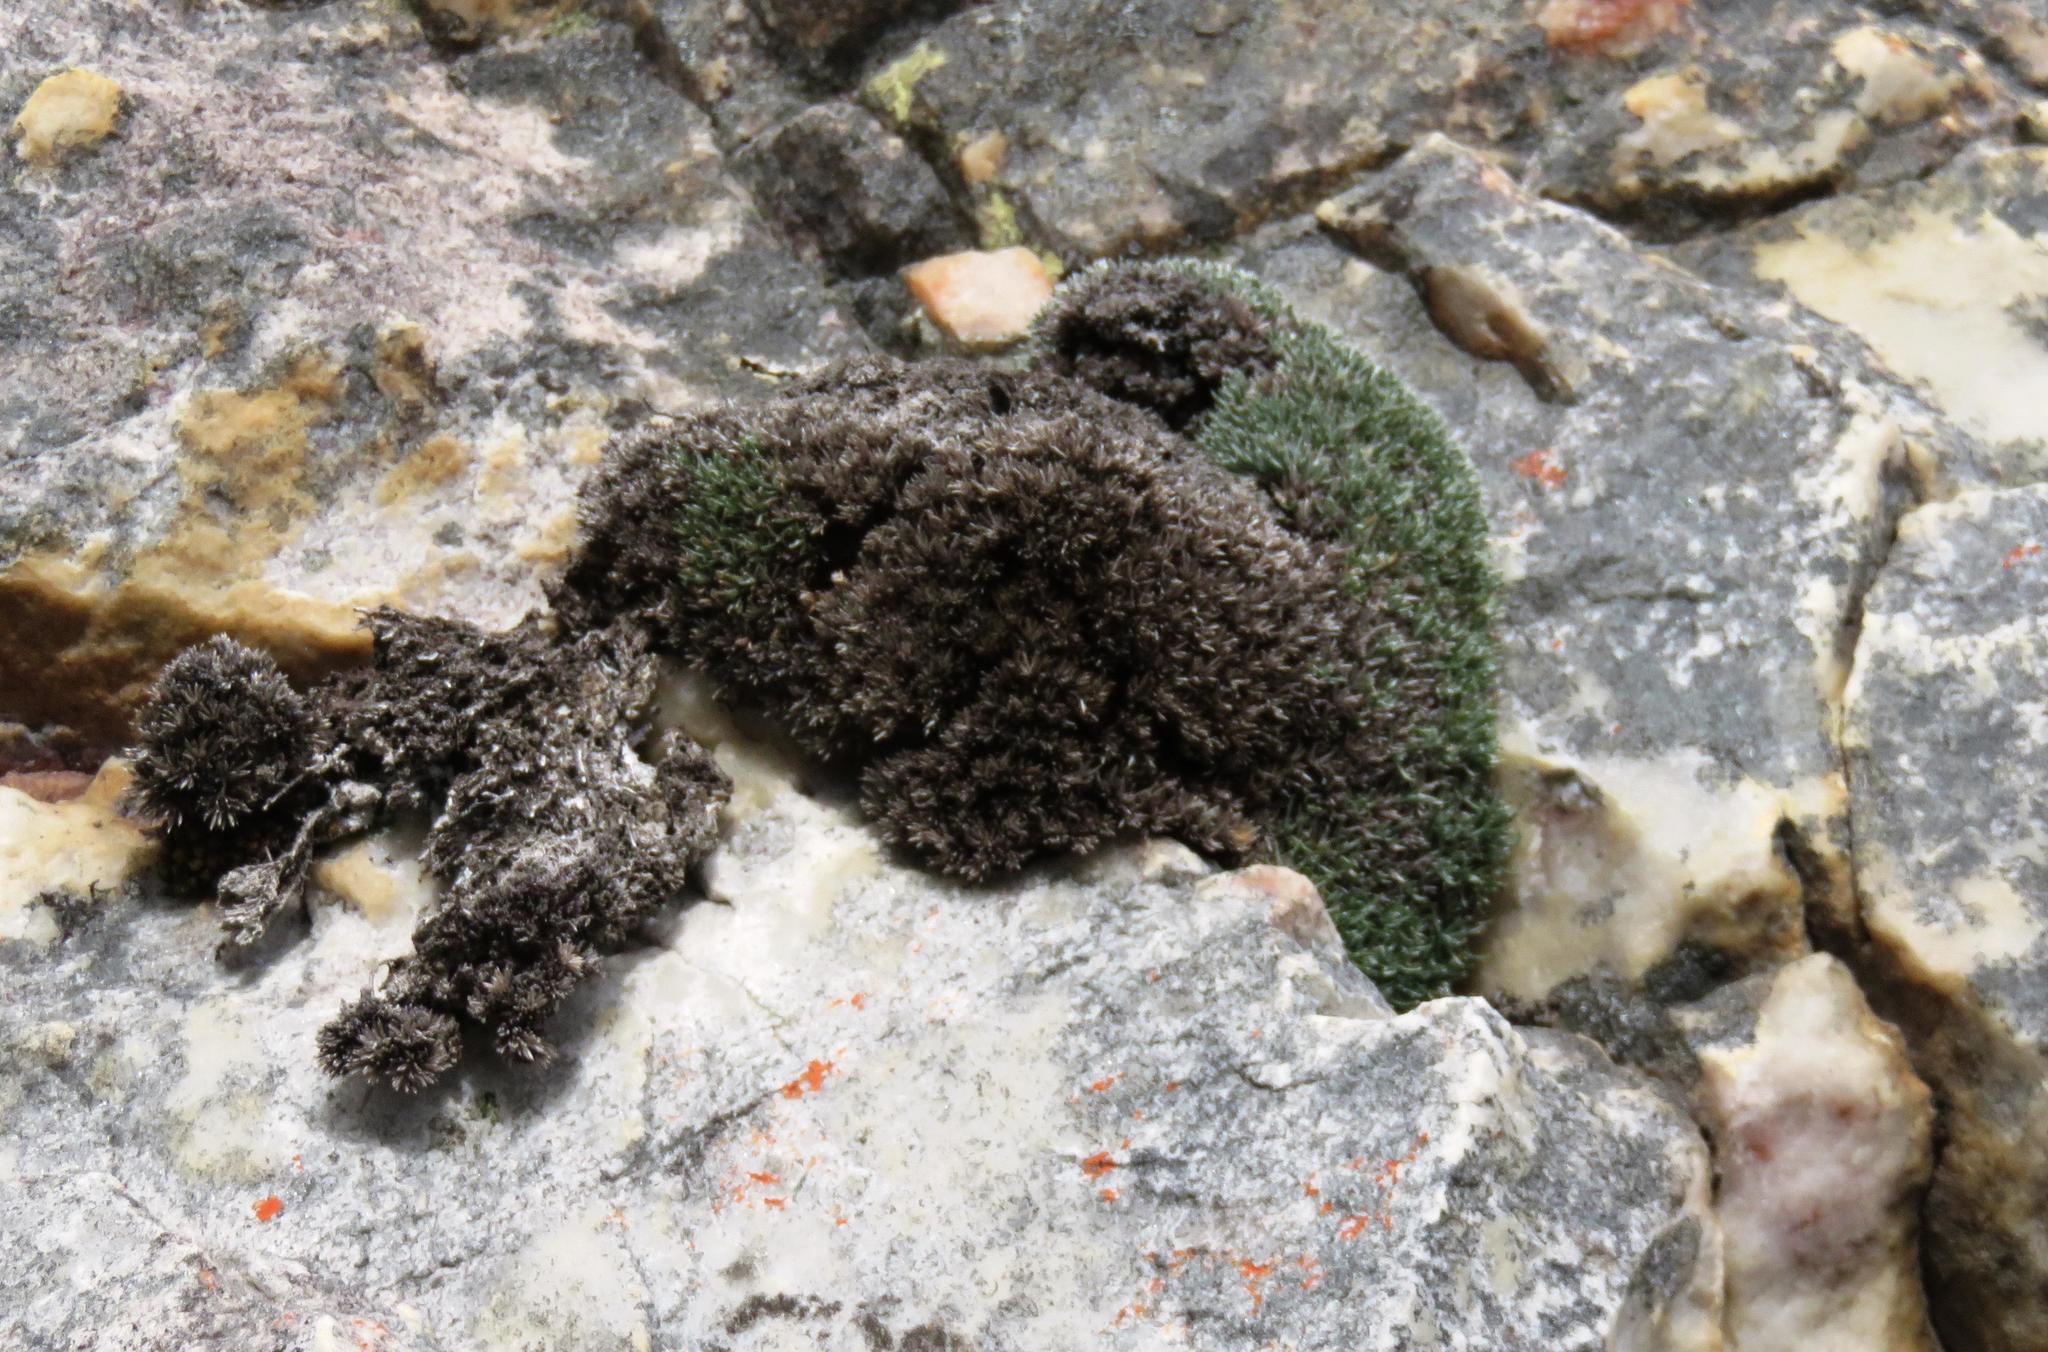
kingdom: Plantae
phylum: Tracheophyta
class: Magnoliopsida
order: Asterales
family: Asteraceae
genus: Muscosomorphe
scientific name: Muscosomorphe aretioides
